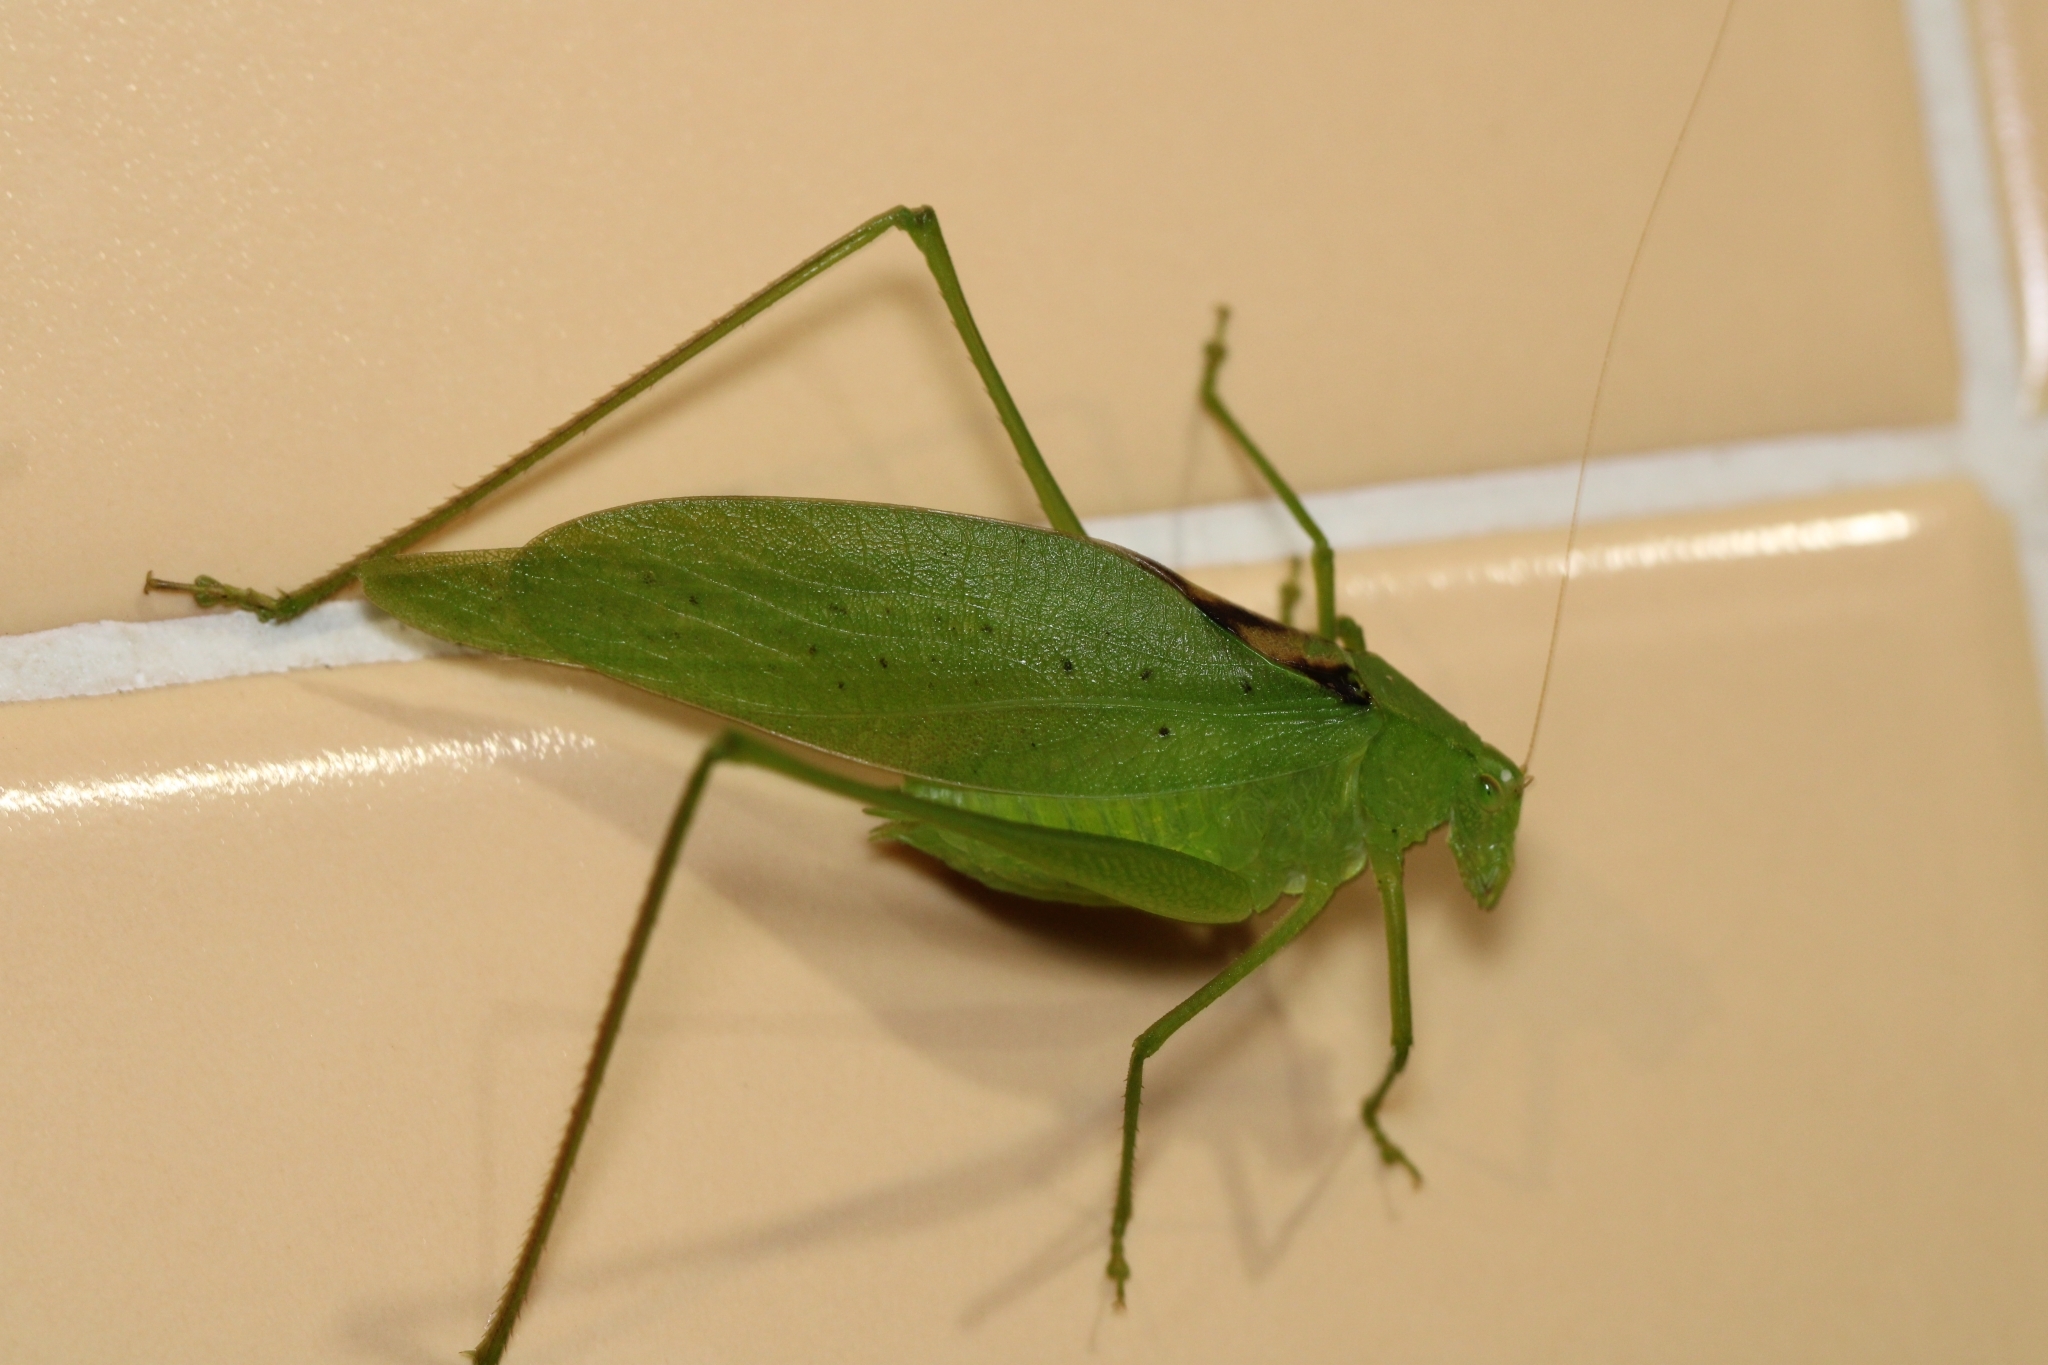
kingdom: Animalia
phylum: Arthropoda
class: Insecta
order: Orthoptera
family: Tettigoniidae
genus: Amblycorypha
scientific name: Amblycorypha oblongifolia
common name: Oblong-winged katydid
